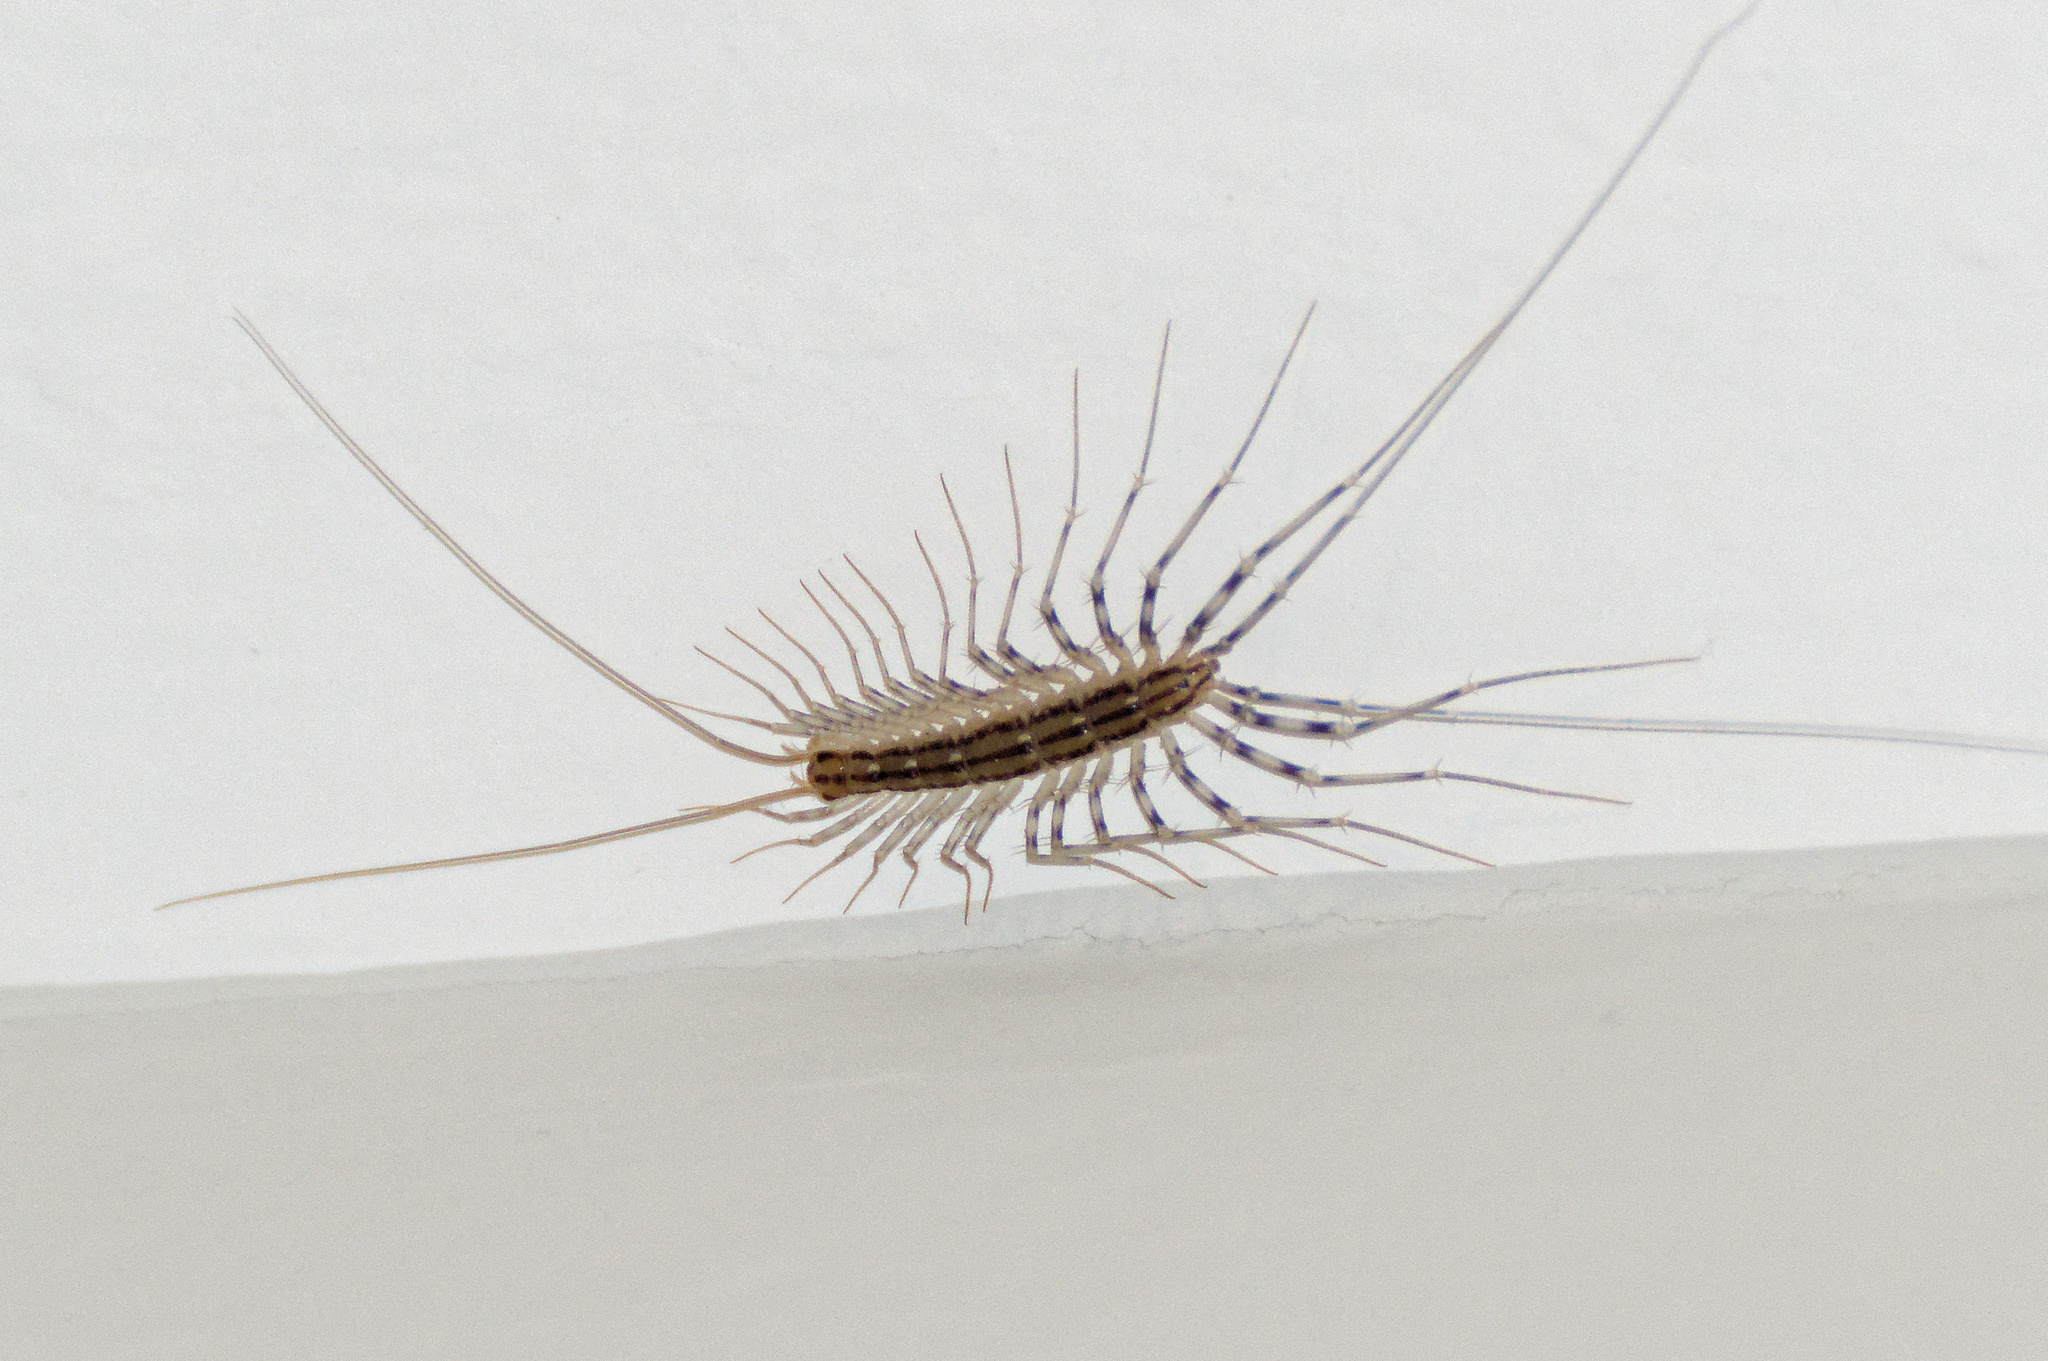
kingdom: Animalia
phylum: Arthropoda
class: Chilopoda
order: Scutigeromorpha
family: Scutigeridae
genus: Scutigera
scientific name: Scutigera coleoptrata
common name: House centipede
